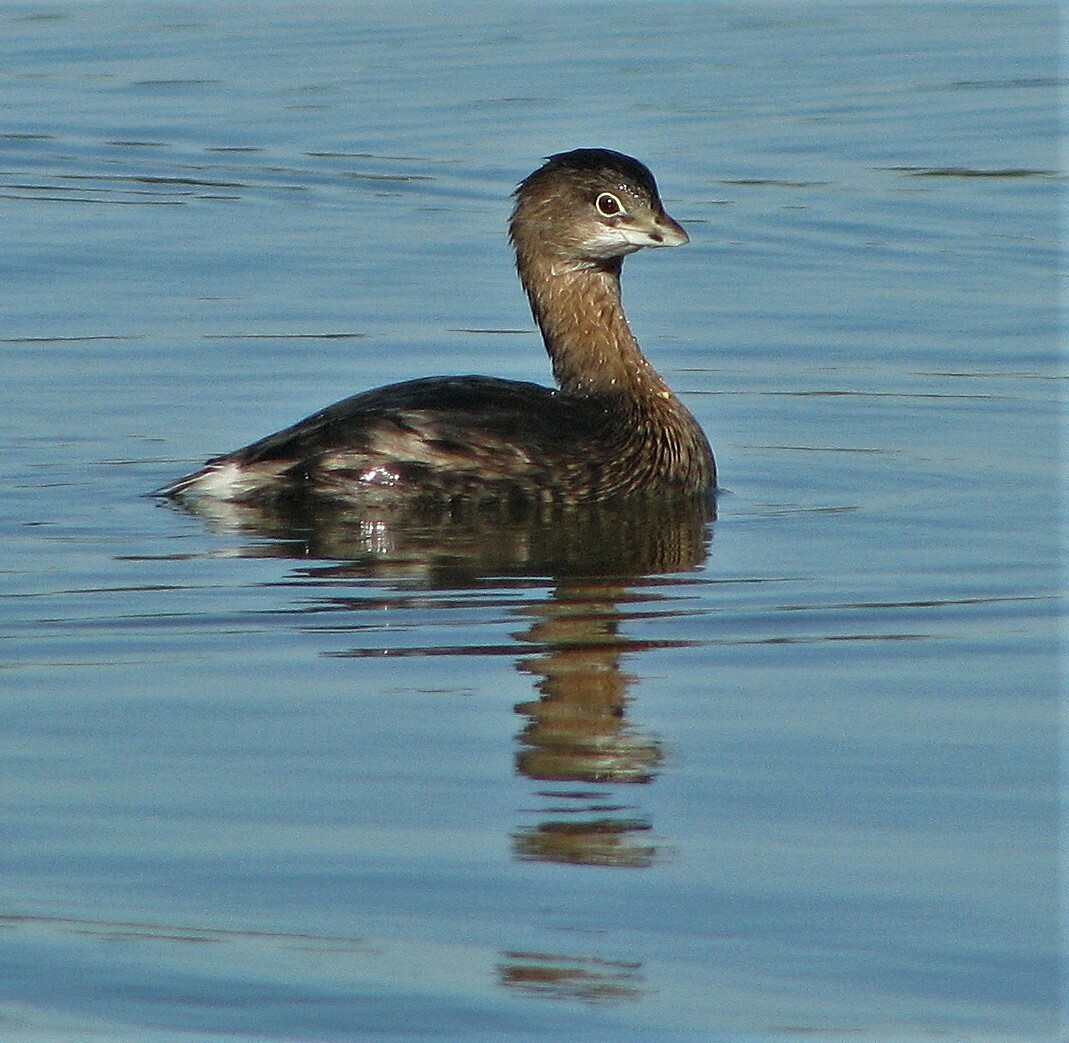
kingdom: Animalia
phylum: Chordata
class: Aves
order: Podicipediformes
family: Podicipedidae
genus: Podilymbus
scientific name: Podilymbus podiceps
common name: Pied-billed grebe
